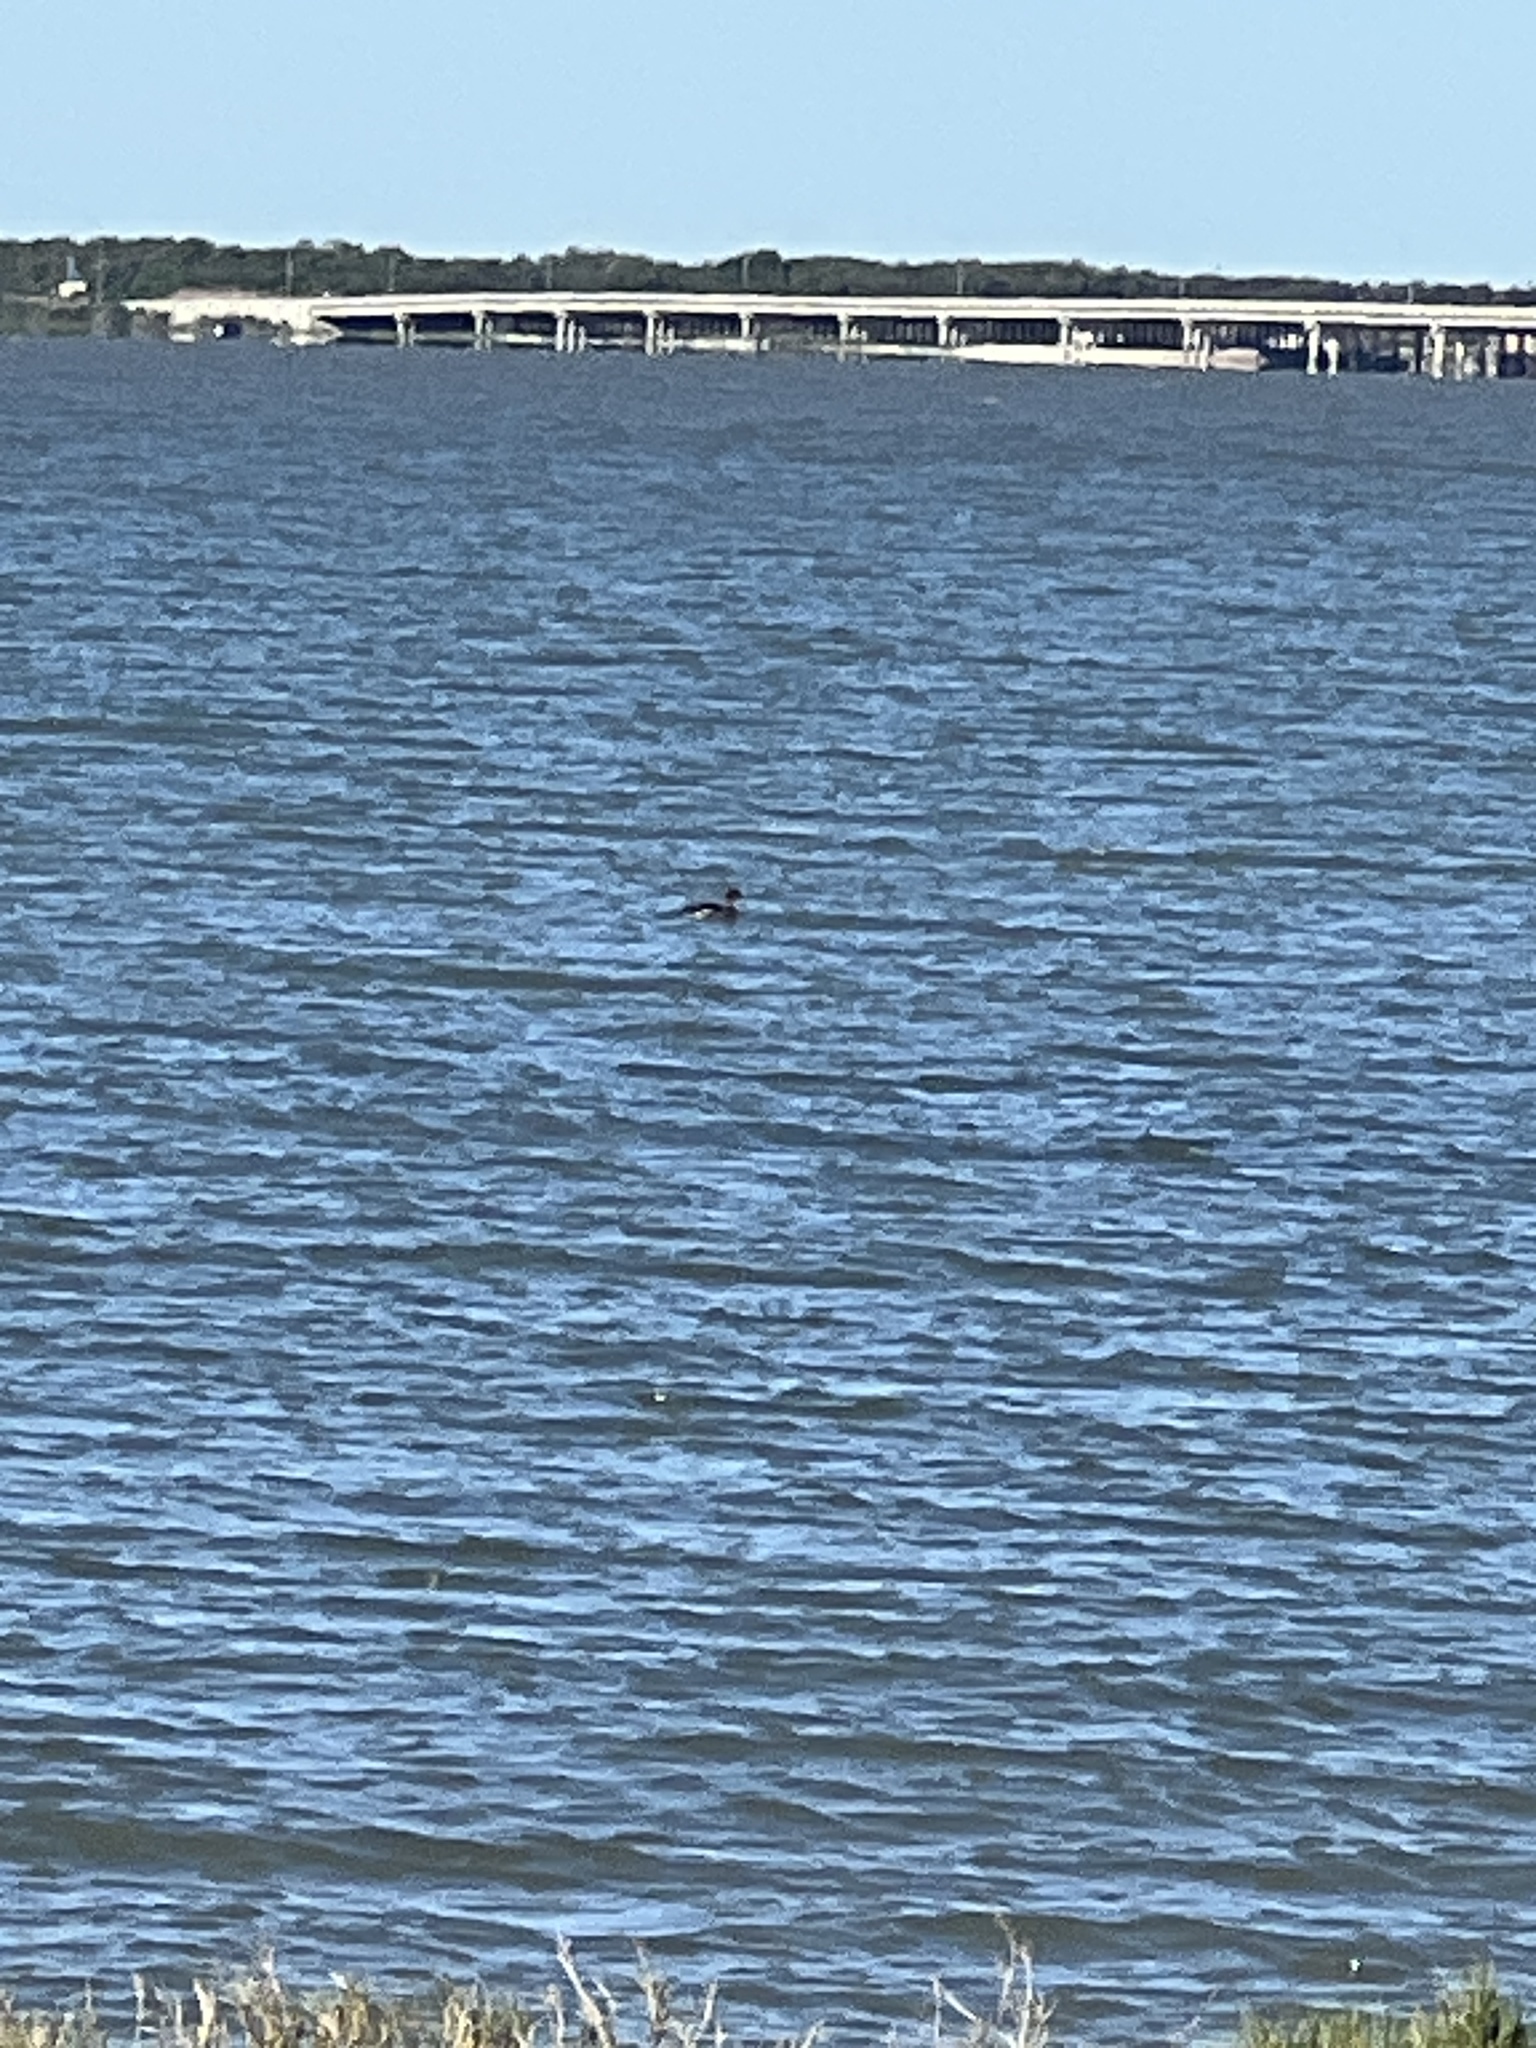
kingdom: Animalia
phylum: Chordata
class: Aves
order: Anseriformes
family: Anatidae
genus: Mergus
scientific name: Mergus serrator
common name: Red-breasted merganser
